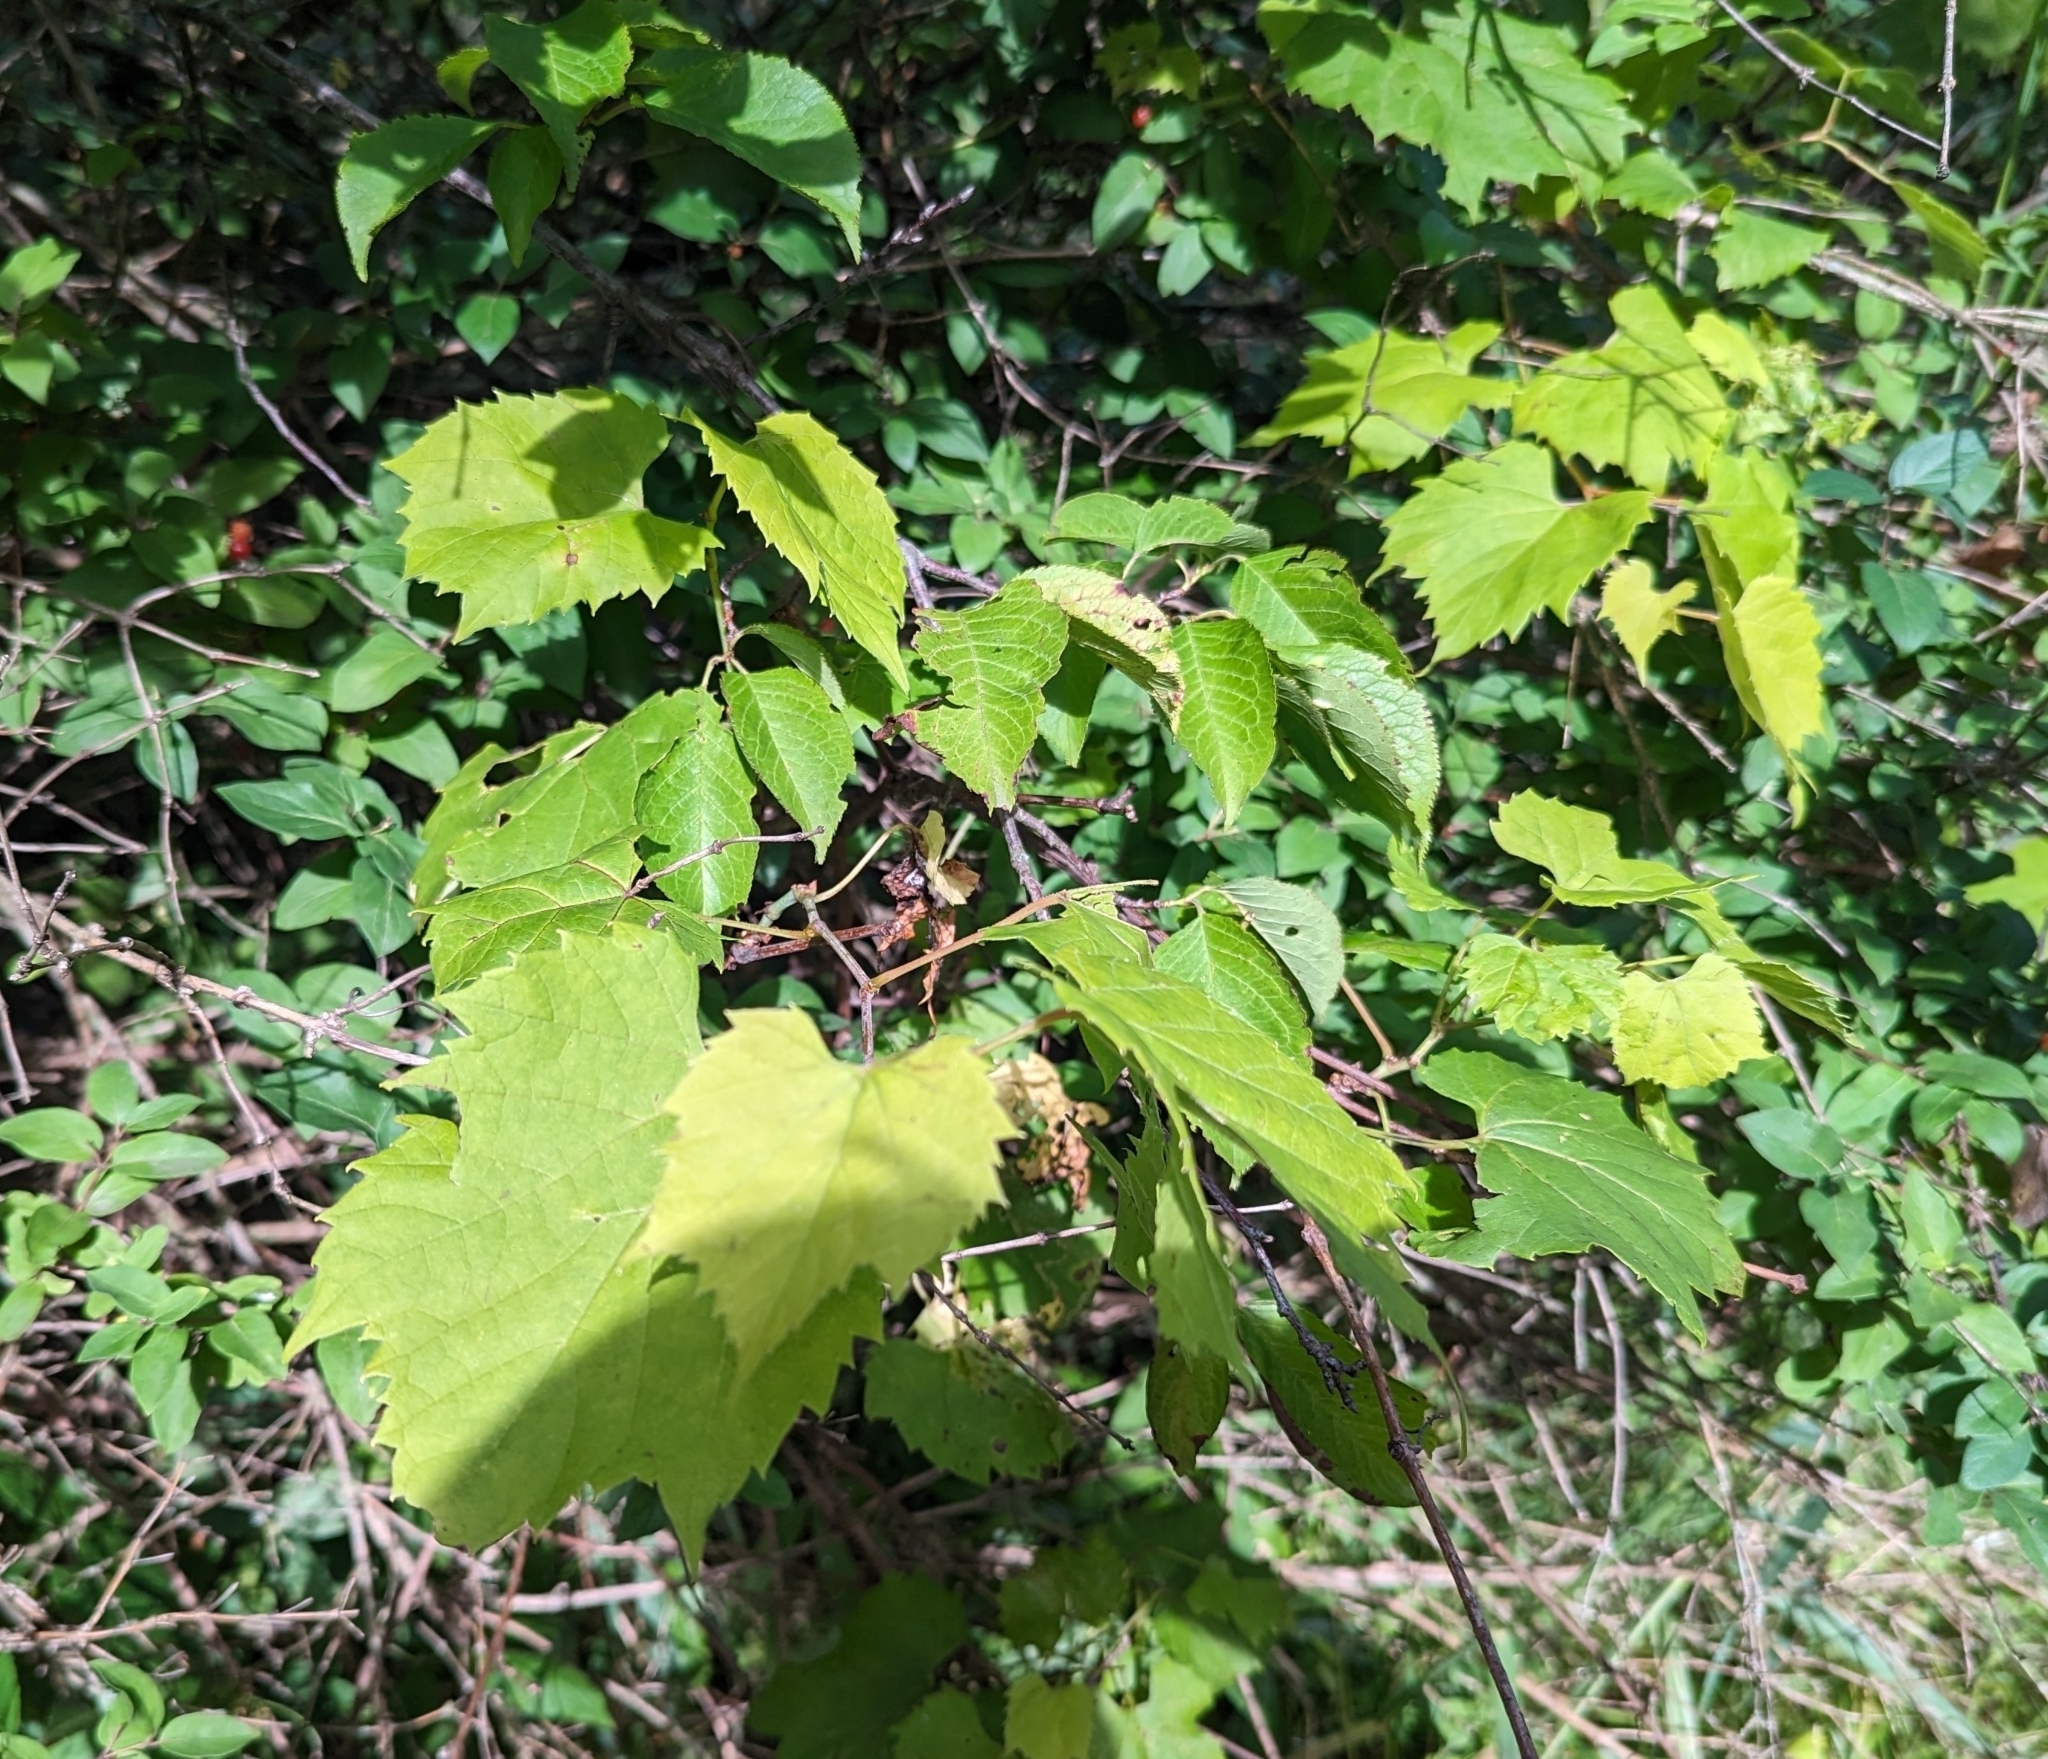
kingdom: Plantae
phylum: Tracheophyta
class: Magnoliopsida
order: Vitales
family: Vitaceae
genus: Vitis
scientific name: Vitis riparia
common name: Frost grape
